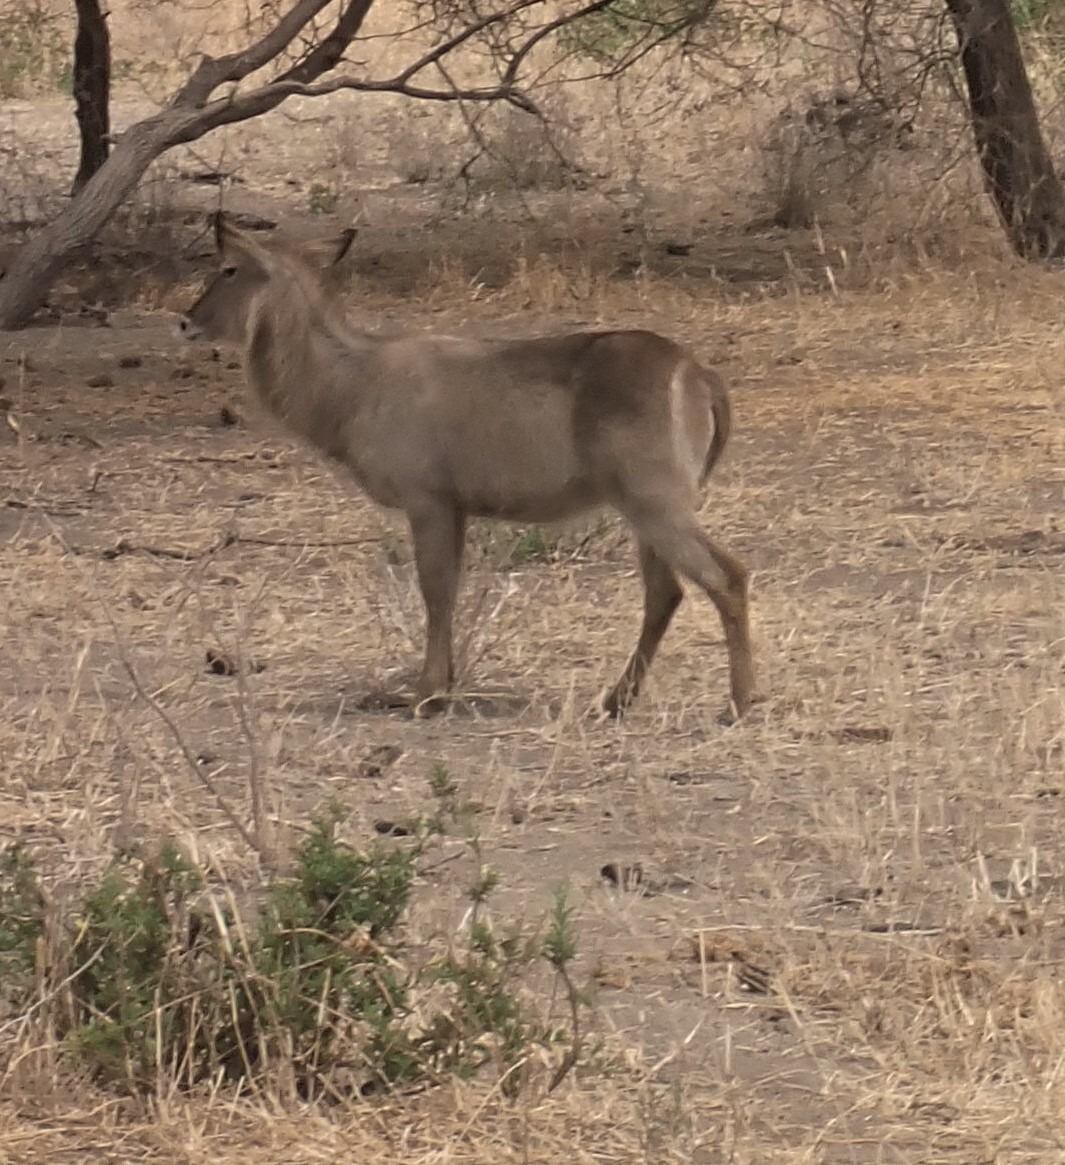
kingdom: Animalia
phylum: Chordata
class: Mammalia
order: Artiodactyla
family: Bovidae
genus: Kobus
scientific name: Kobus ellipsiprymnus
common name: Waterbuck
